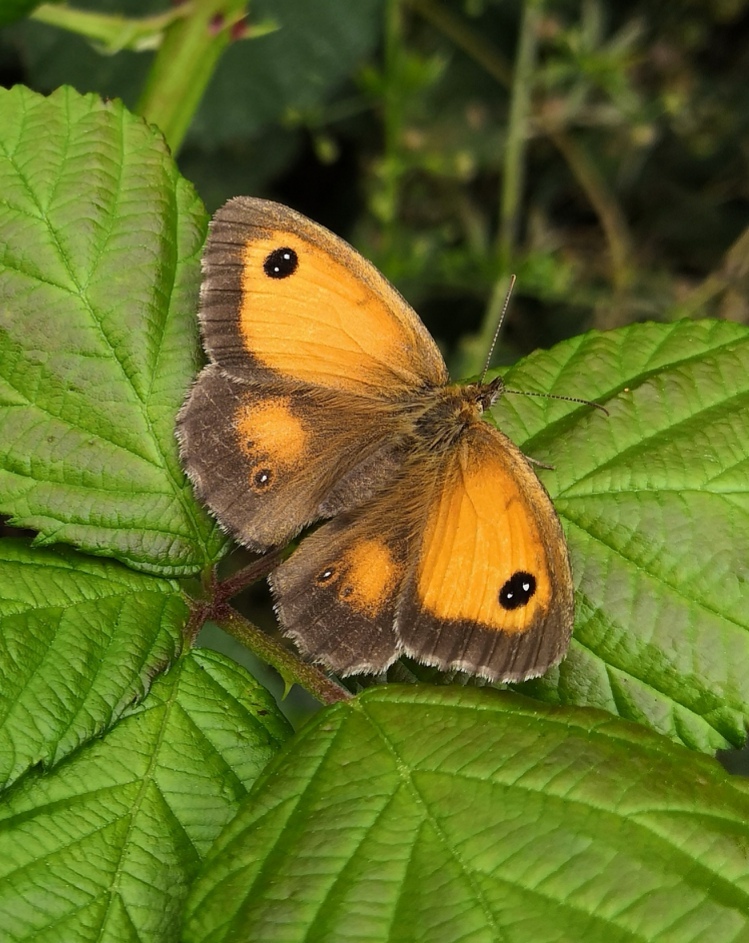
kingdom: Animalia
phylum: Arthropoda
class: Insecta
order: Lepidoptera
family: Nymphalidae
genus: Pyronia
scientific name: Pyronia tithonus
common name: Gatekeeper
